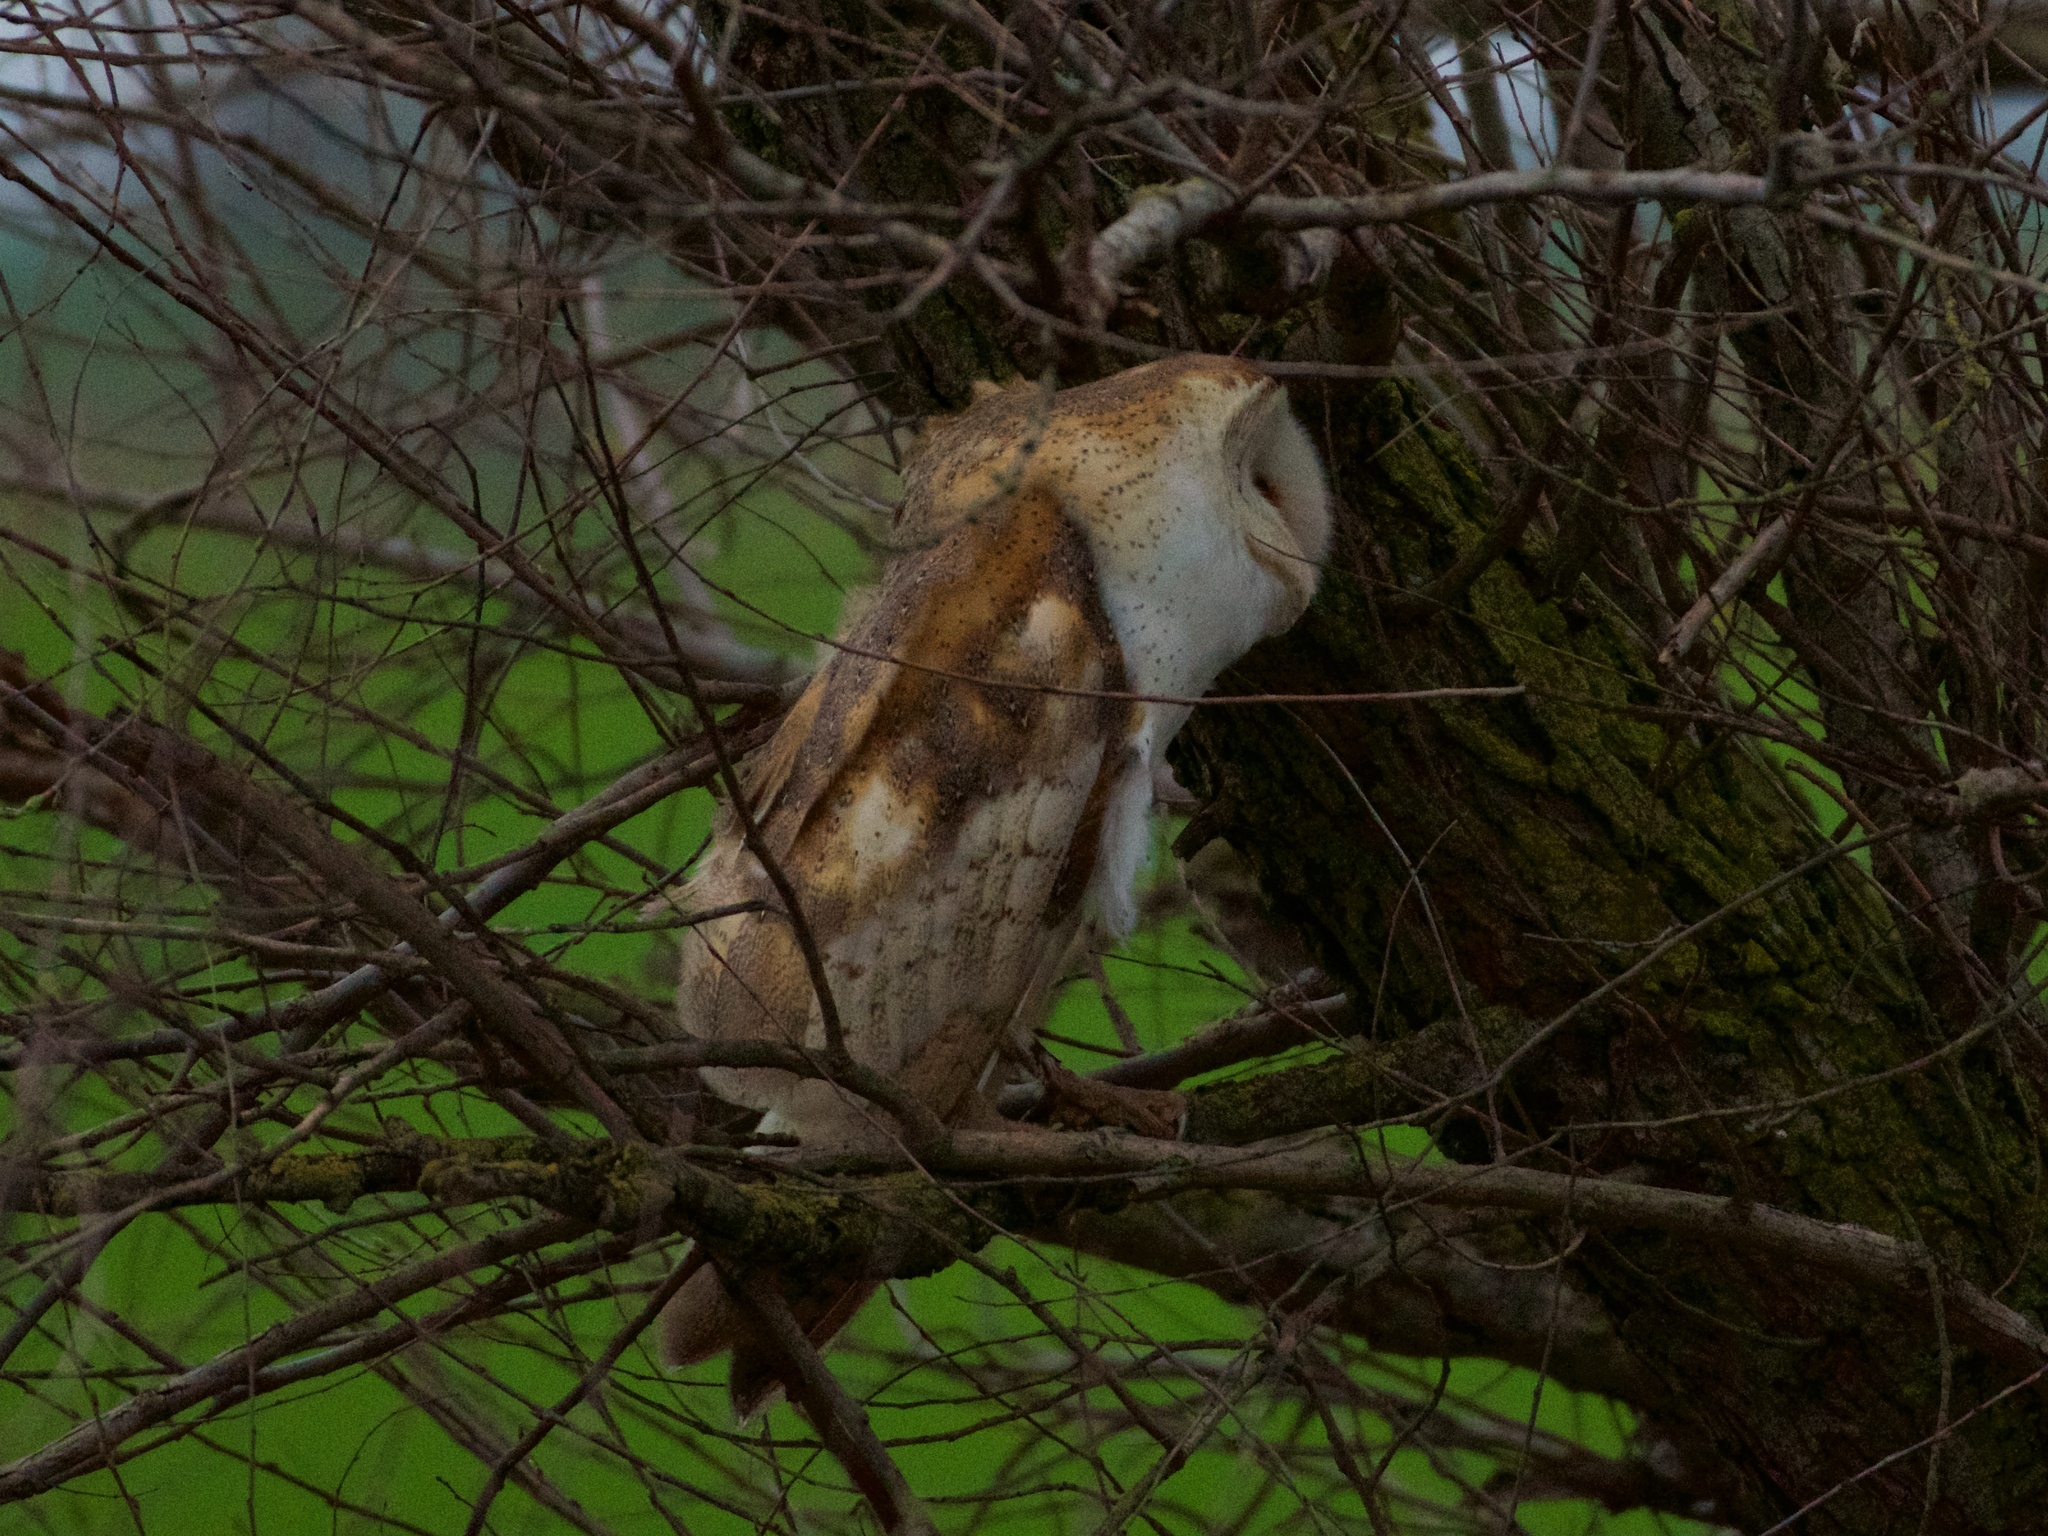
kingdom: Animalia
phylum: Chordata
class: Aves
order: Strigiformes
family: Tytonidae
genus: Tyto
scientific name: Tyto alba
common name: Barn owl
